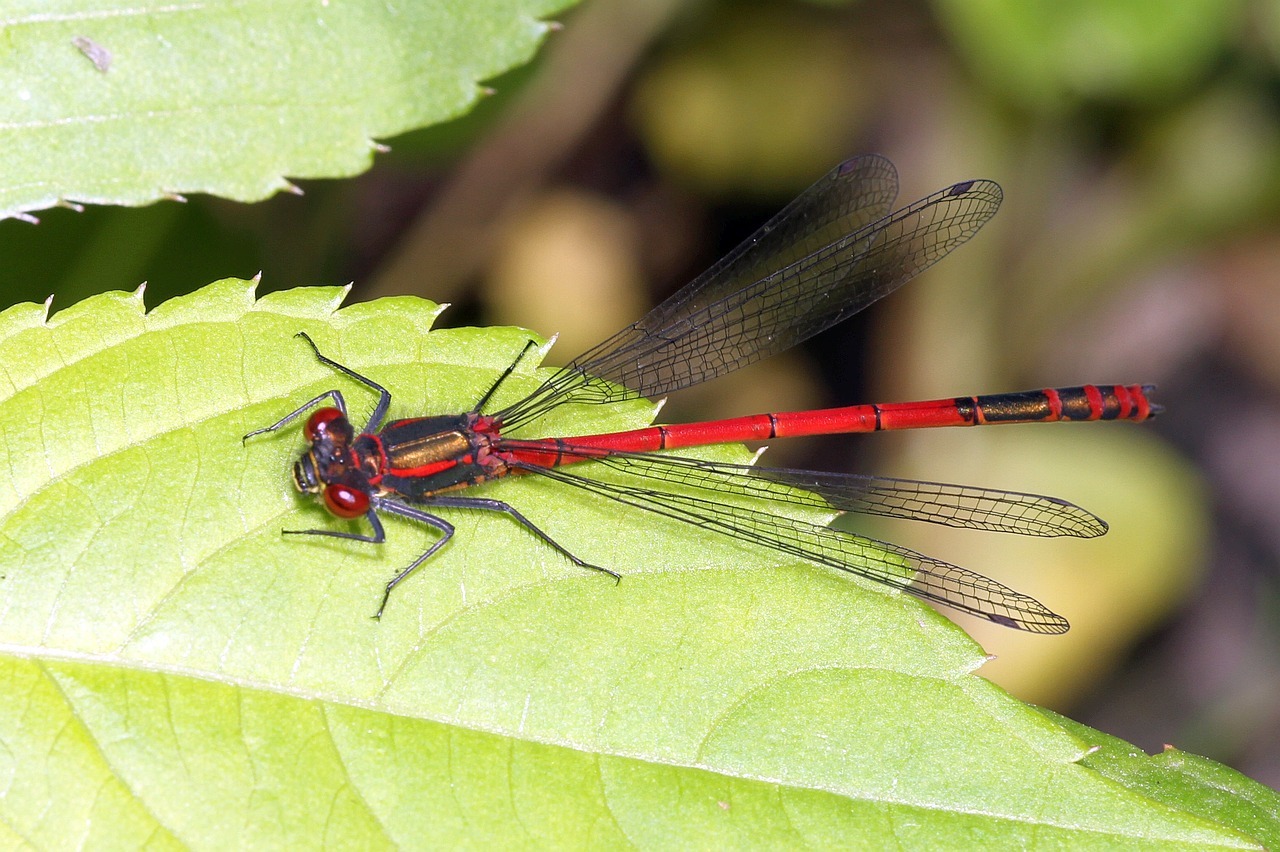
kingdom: Animalia
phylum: Arthropoda
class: Insecta
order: Odonata
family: Coenagrionidae
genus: Pyrrhosoma
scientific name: Pyrrhosoma nymphula
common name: Large red damsel
